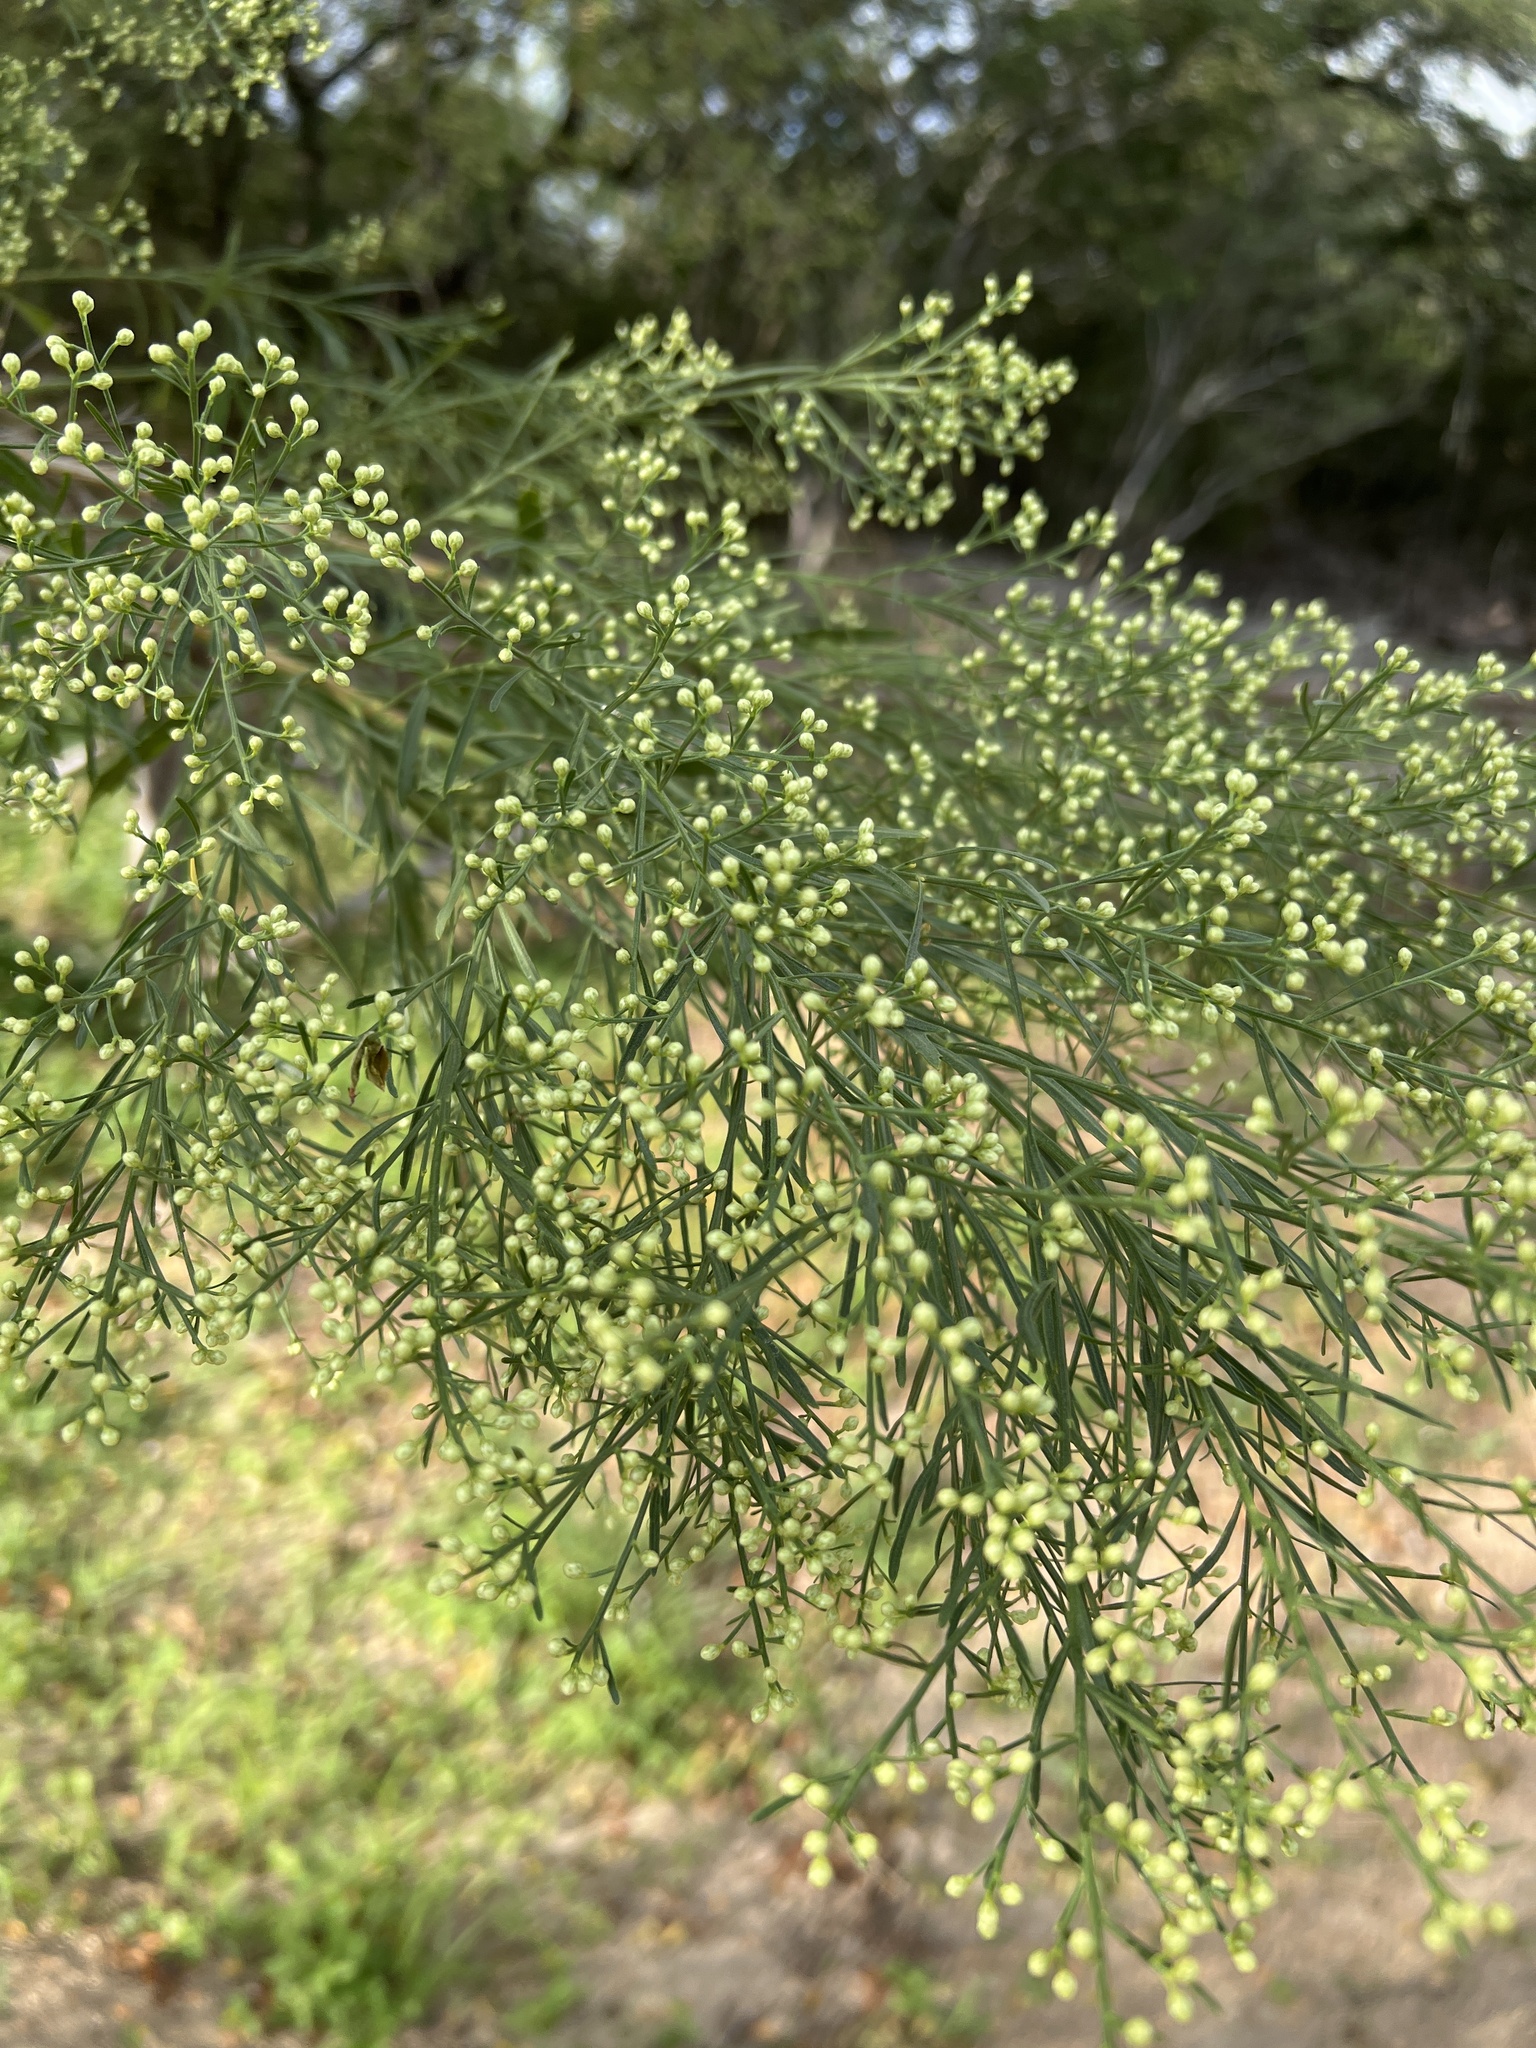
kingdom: Plantae
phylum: Tracheophyta
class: Magnoliopsida
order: Asterales
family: Asteraceae
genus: Baccharis
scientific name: Baccharis neglecta
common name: Roosevelt-weed
